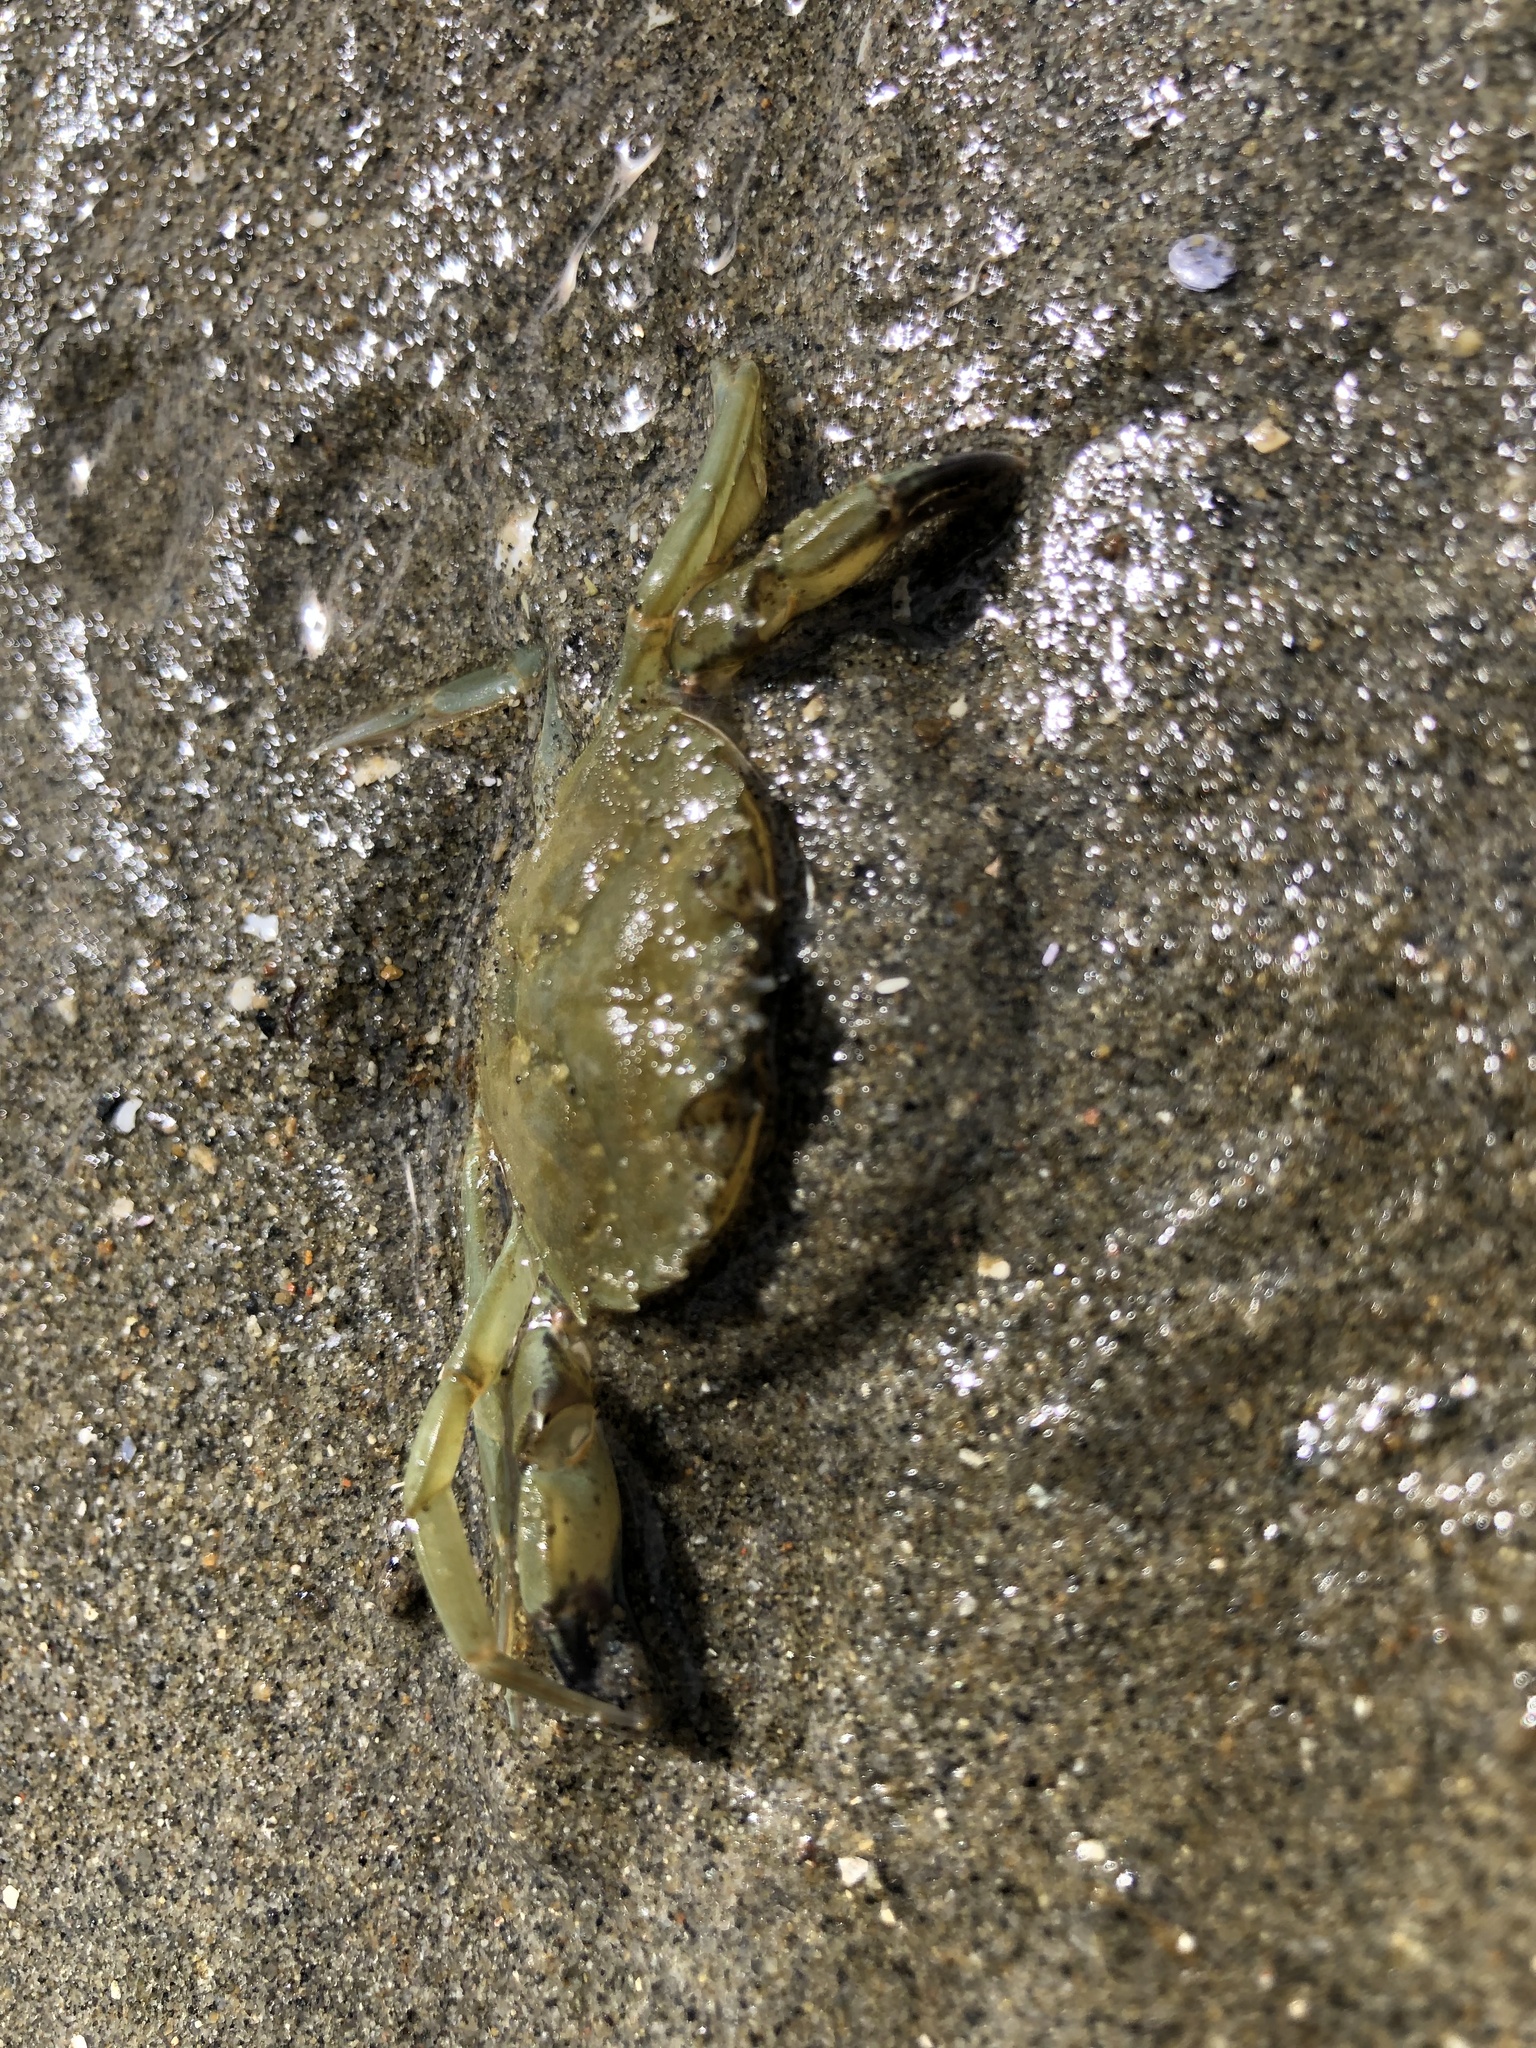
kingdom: Animalia
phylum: Arthropoda
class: Malacostraca
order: Decapoda
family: Carcinidae
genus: Carcinus
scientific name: Carcinus maenas
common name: European green crab
